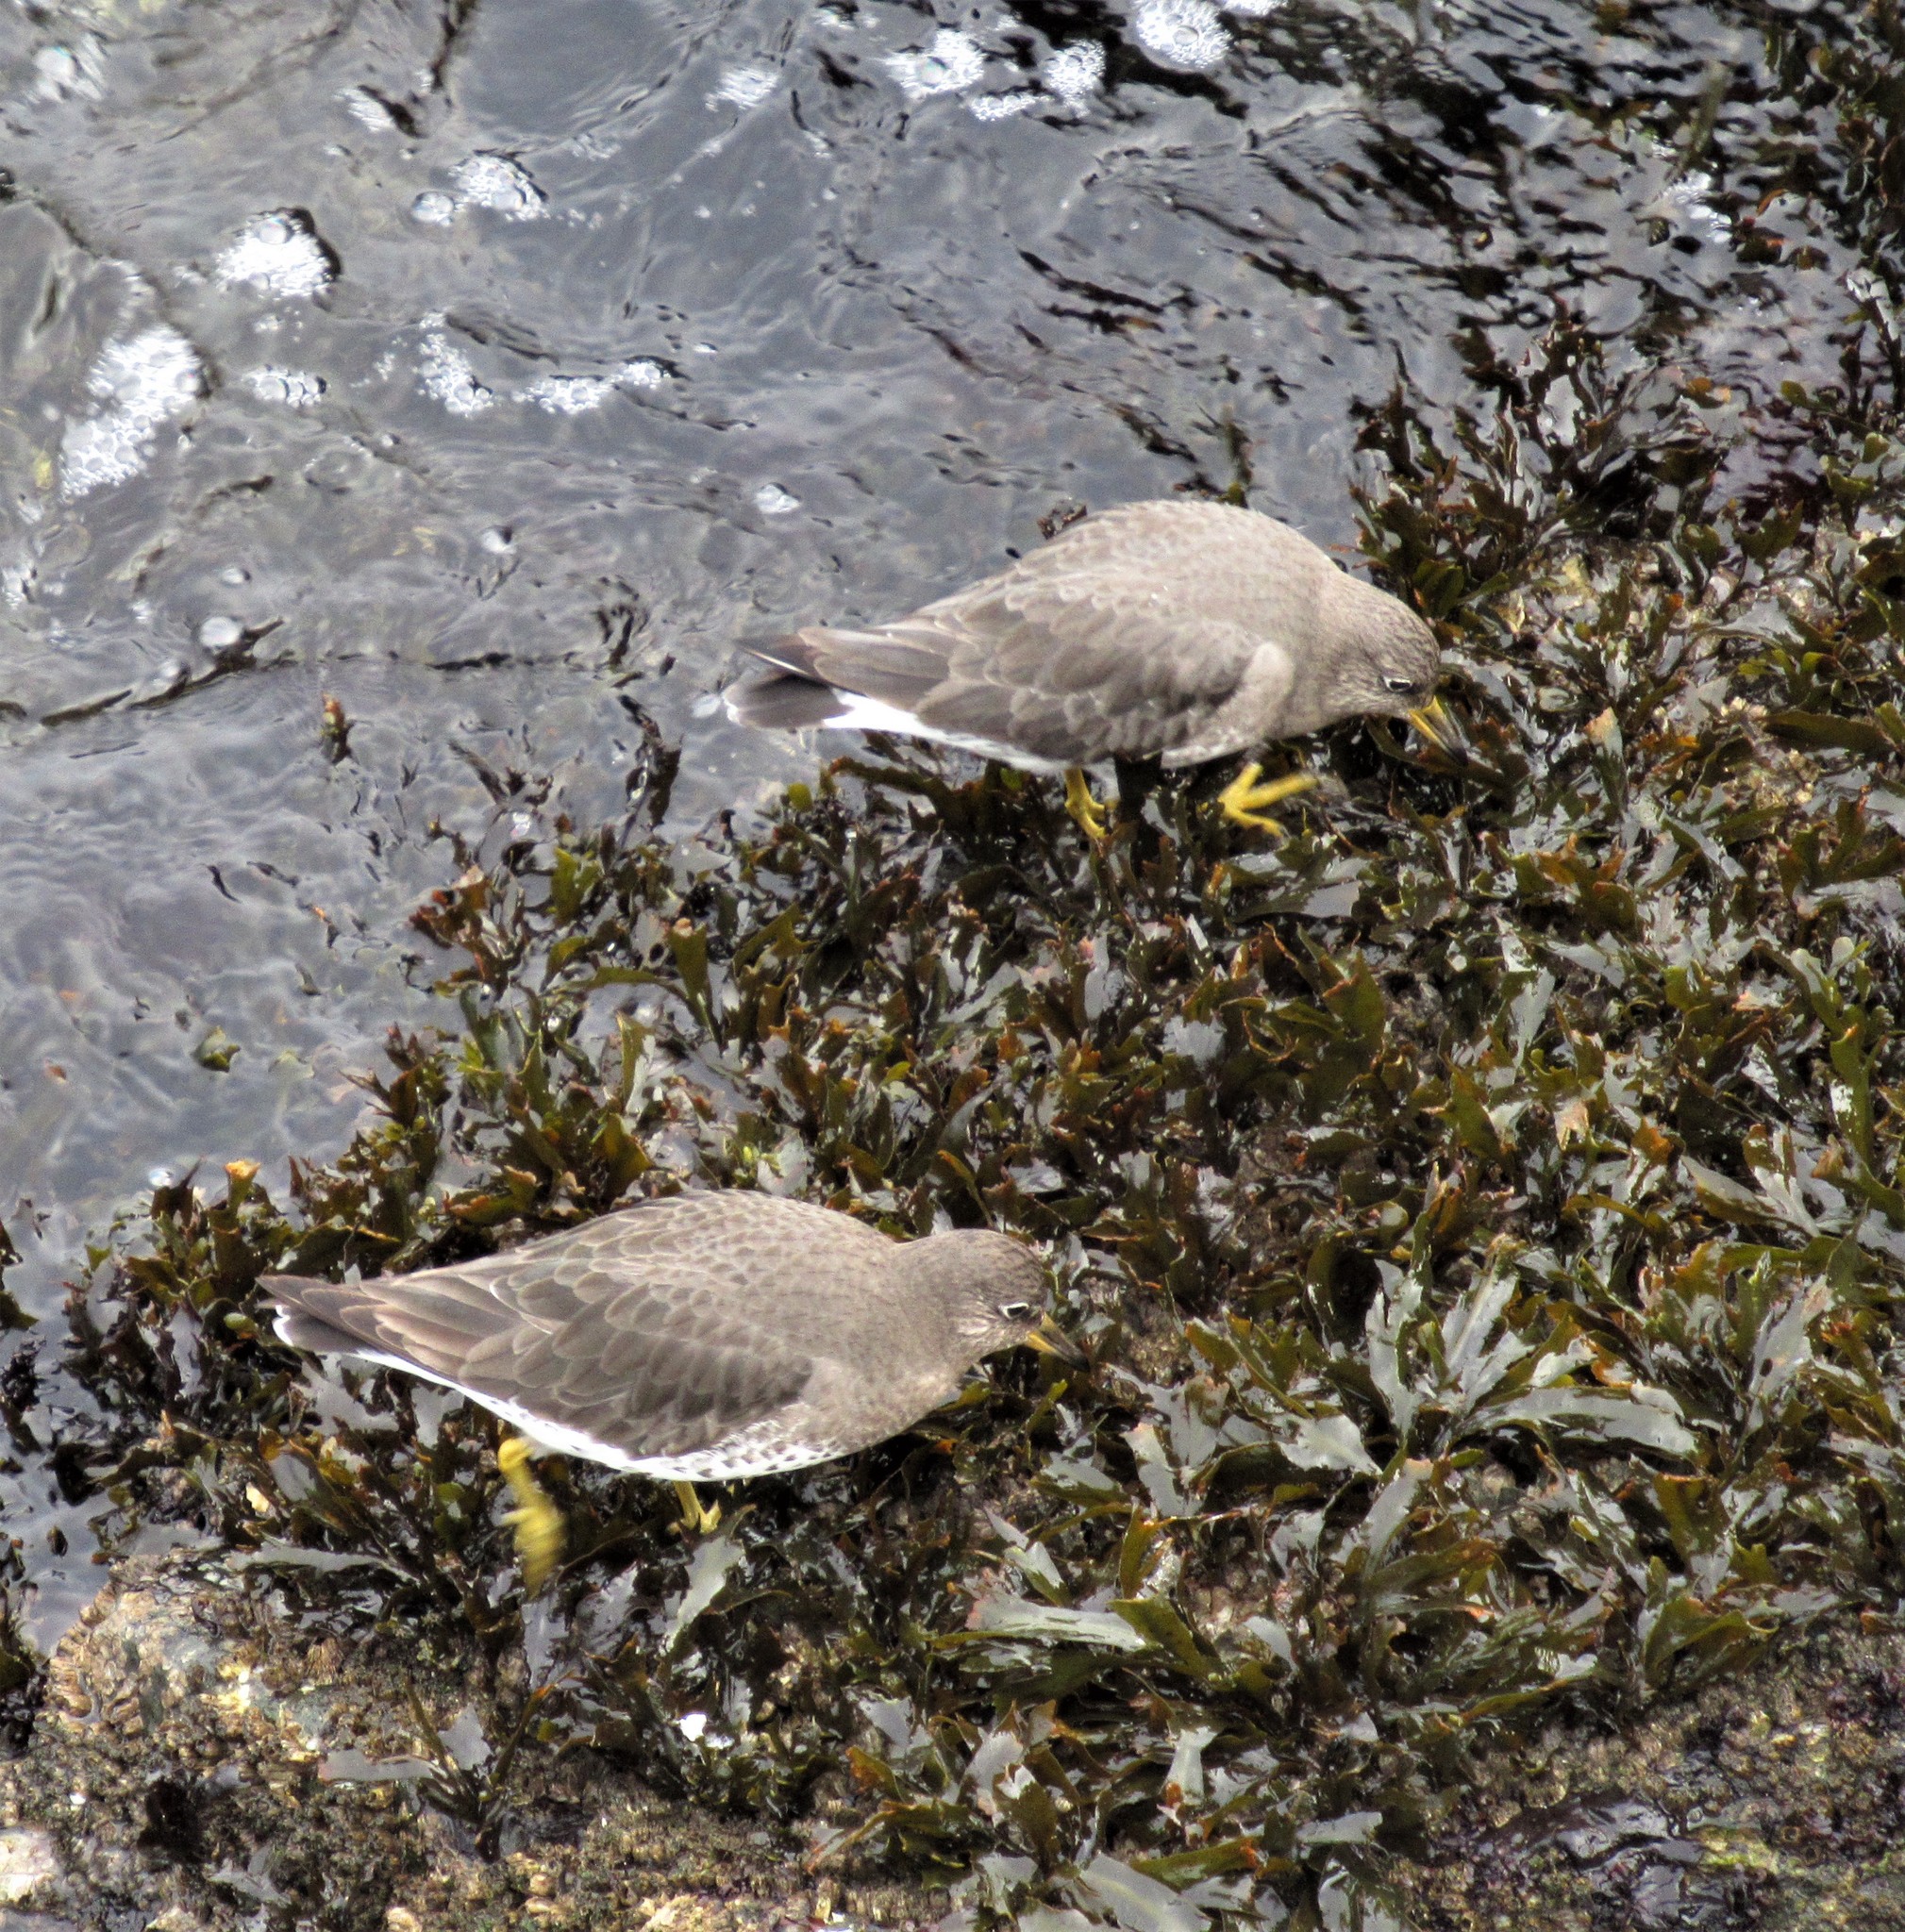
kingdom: Animalia
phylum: Chordata
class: Aves
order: Charadriiformes
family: Scolopacidae
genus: Calidris
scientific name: Calidris virgata
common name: Surfbird
